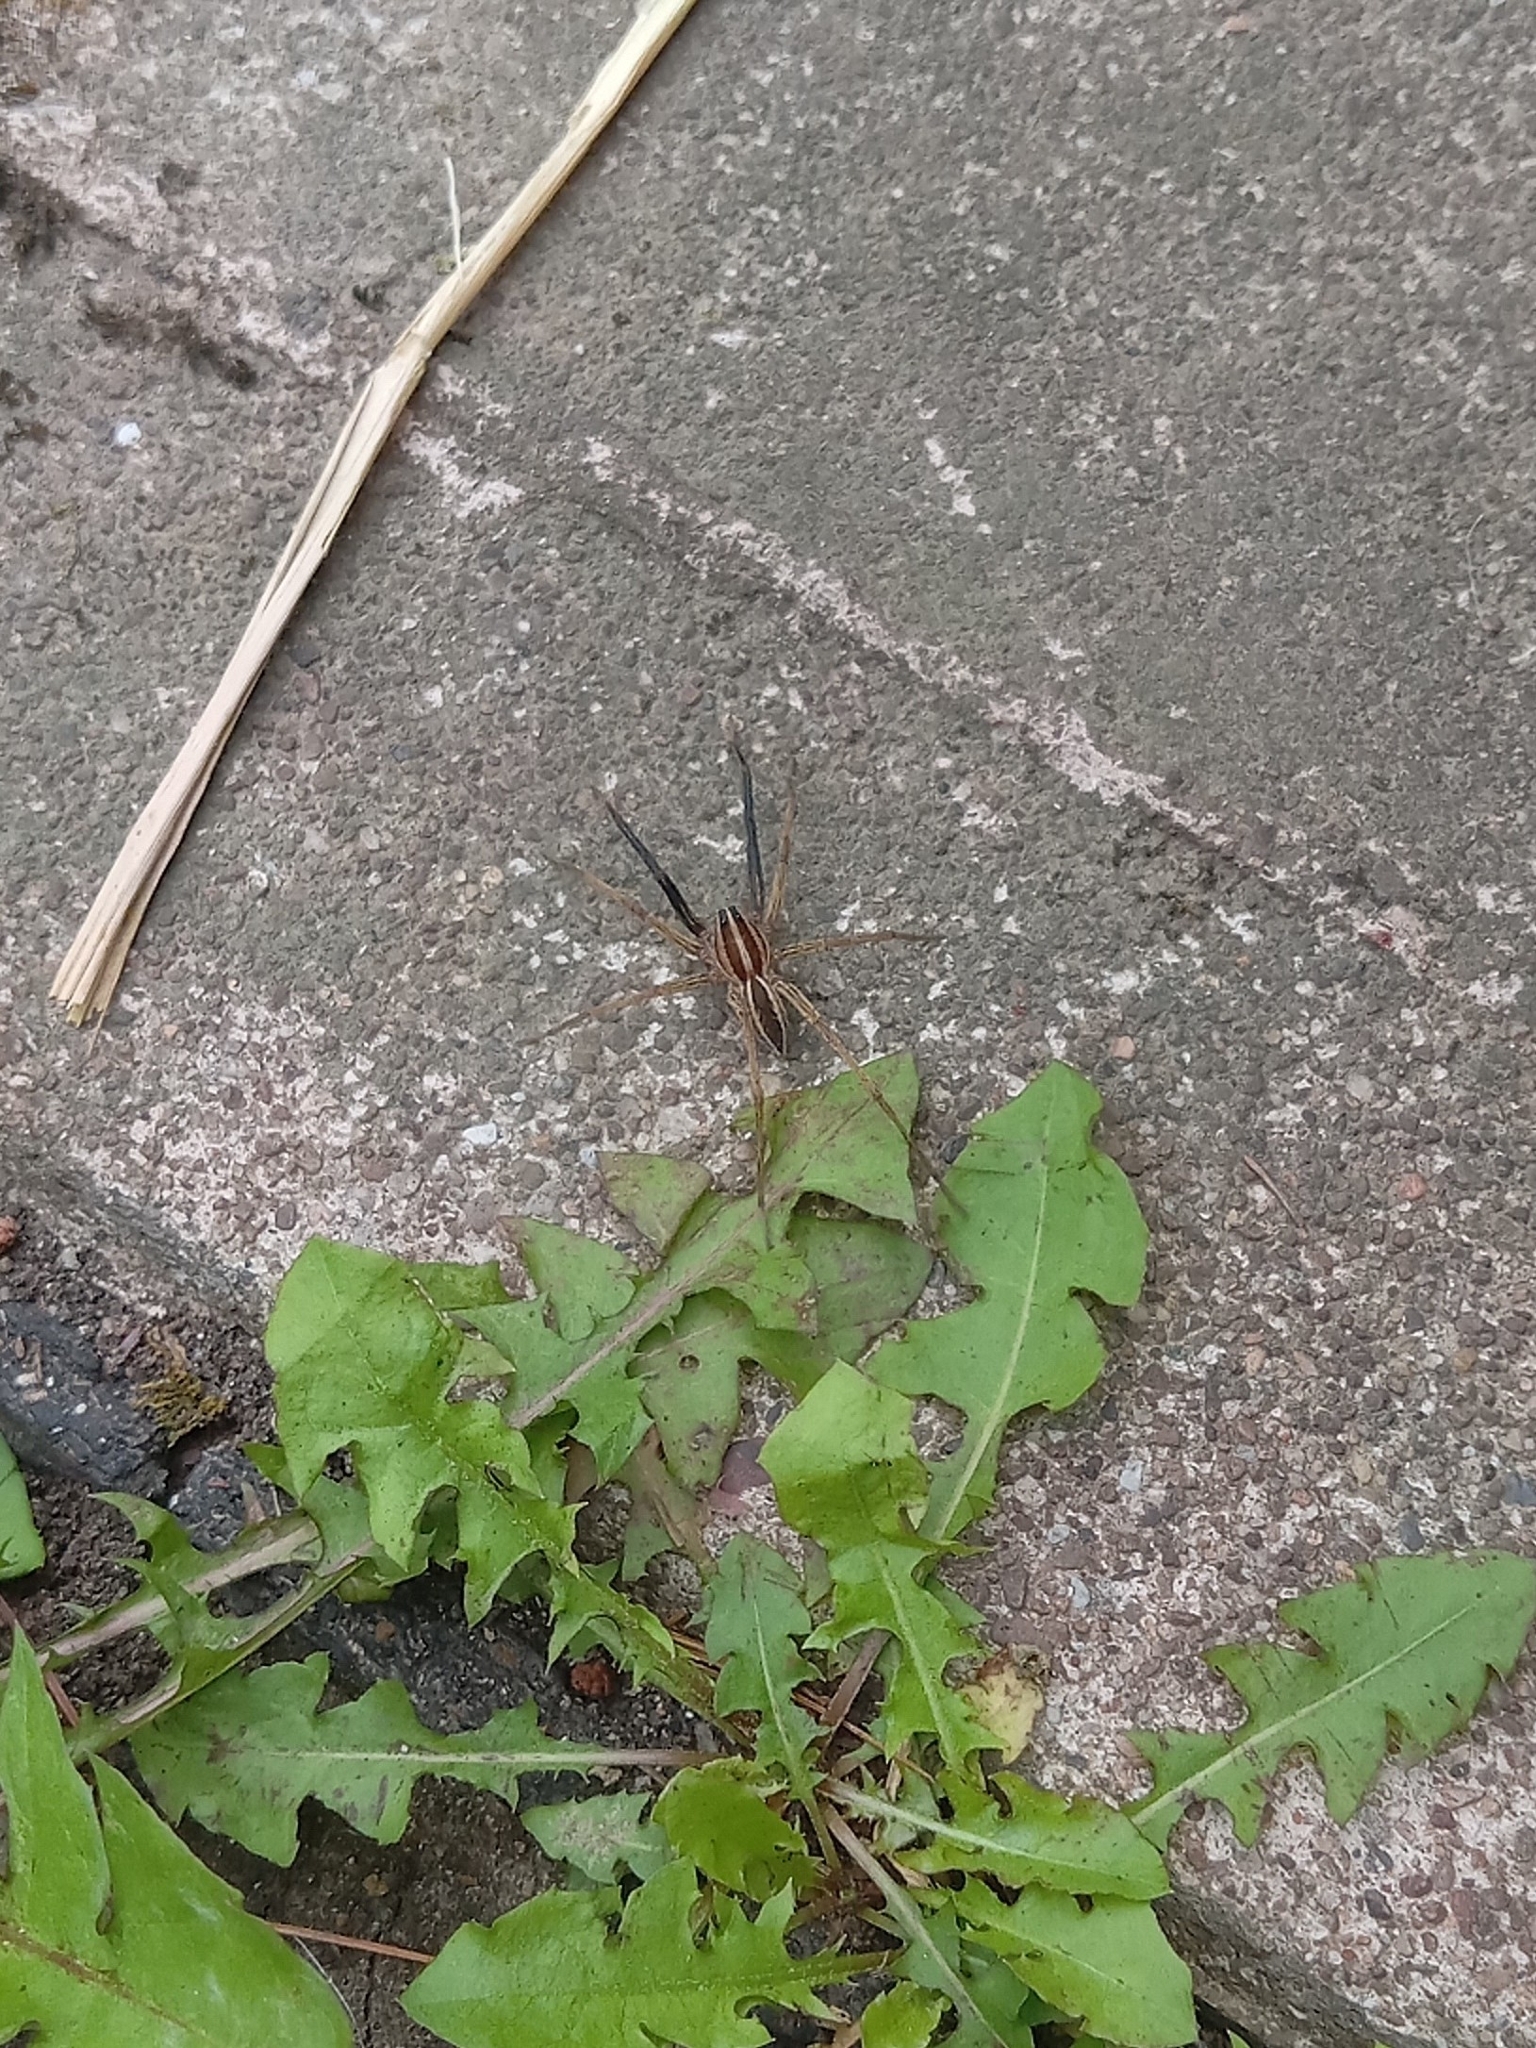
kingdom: Animalia
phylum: Arthropoda
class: Arachnida
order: Araneae
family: Lycosidae
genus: Rabidosa
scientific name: Rabidosa rabida
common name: Rabid wolf spider
